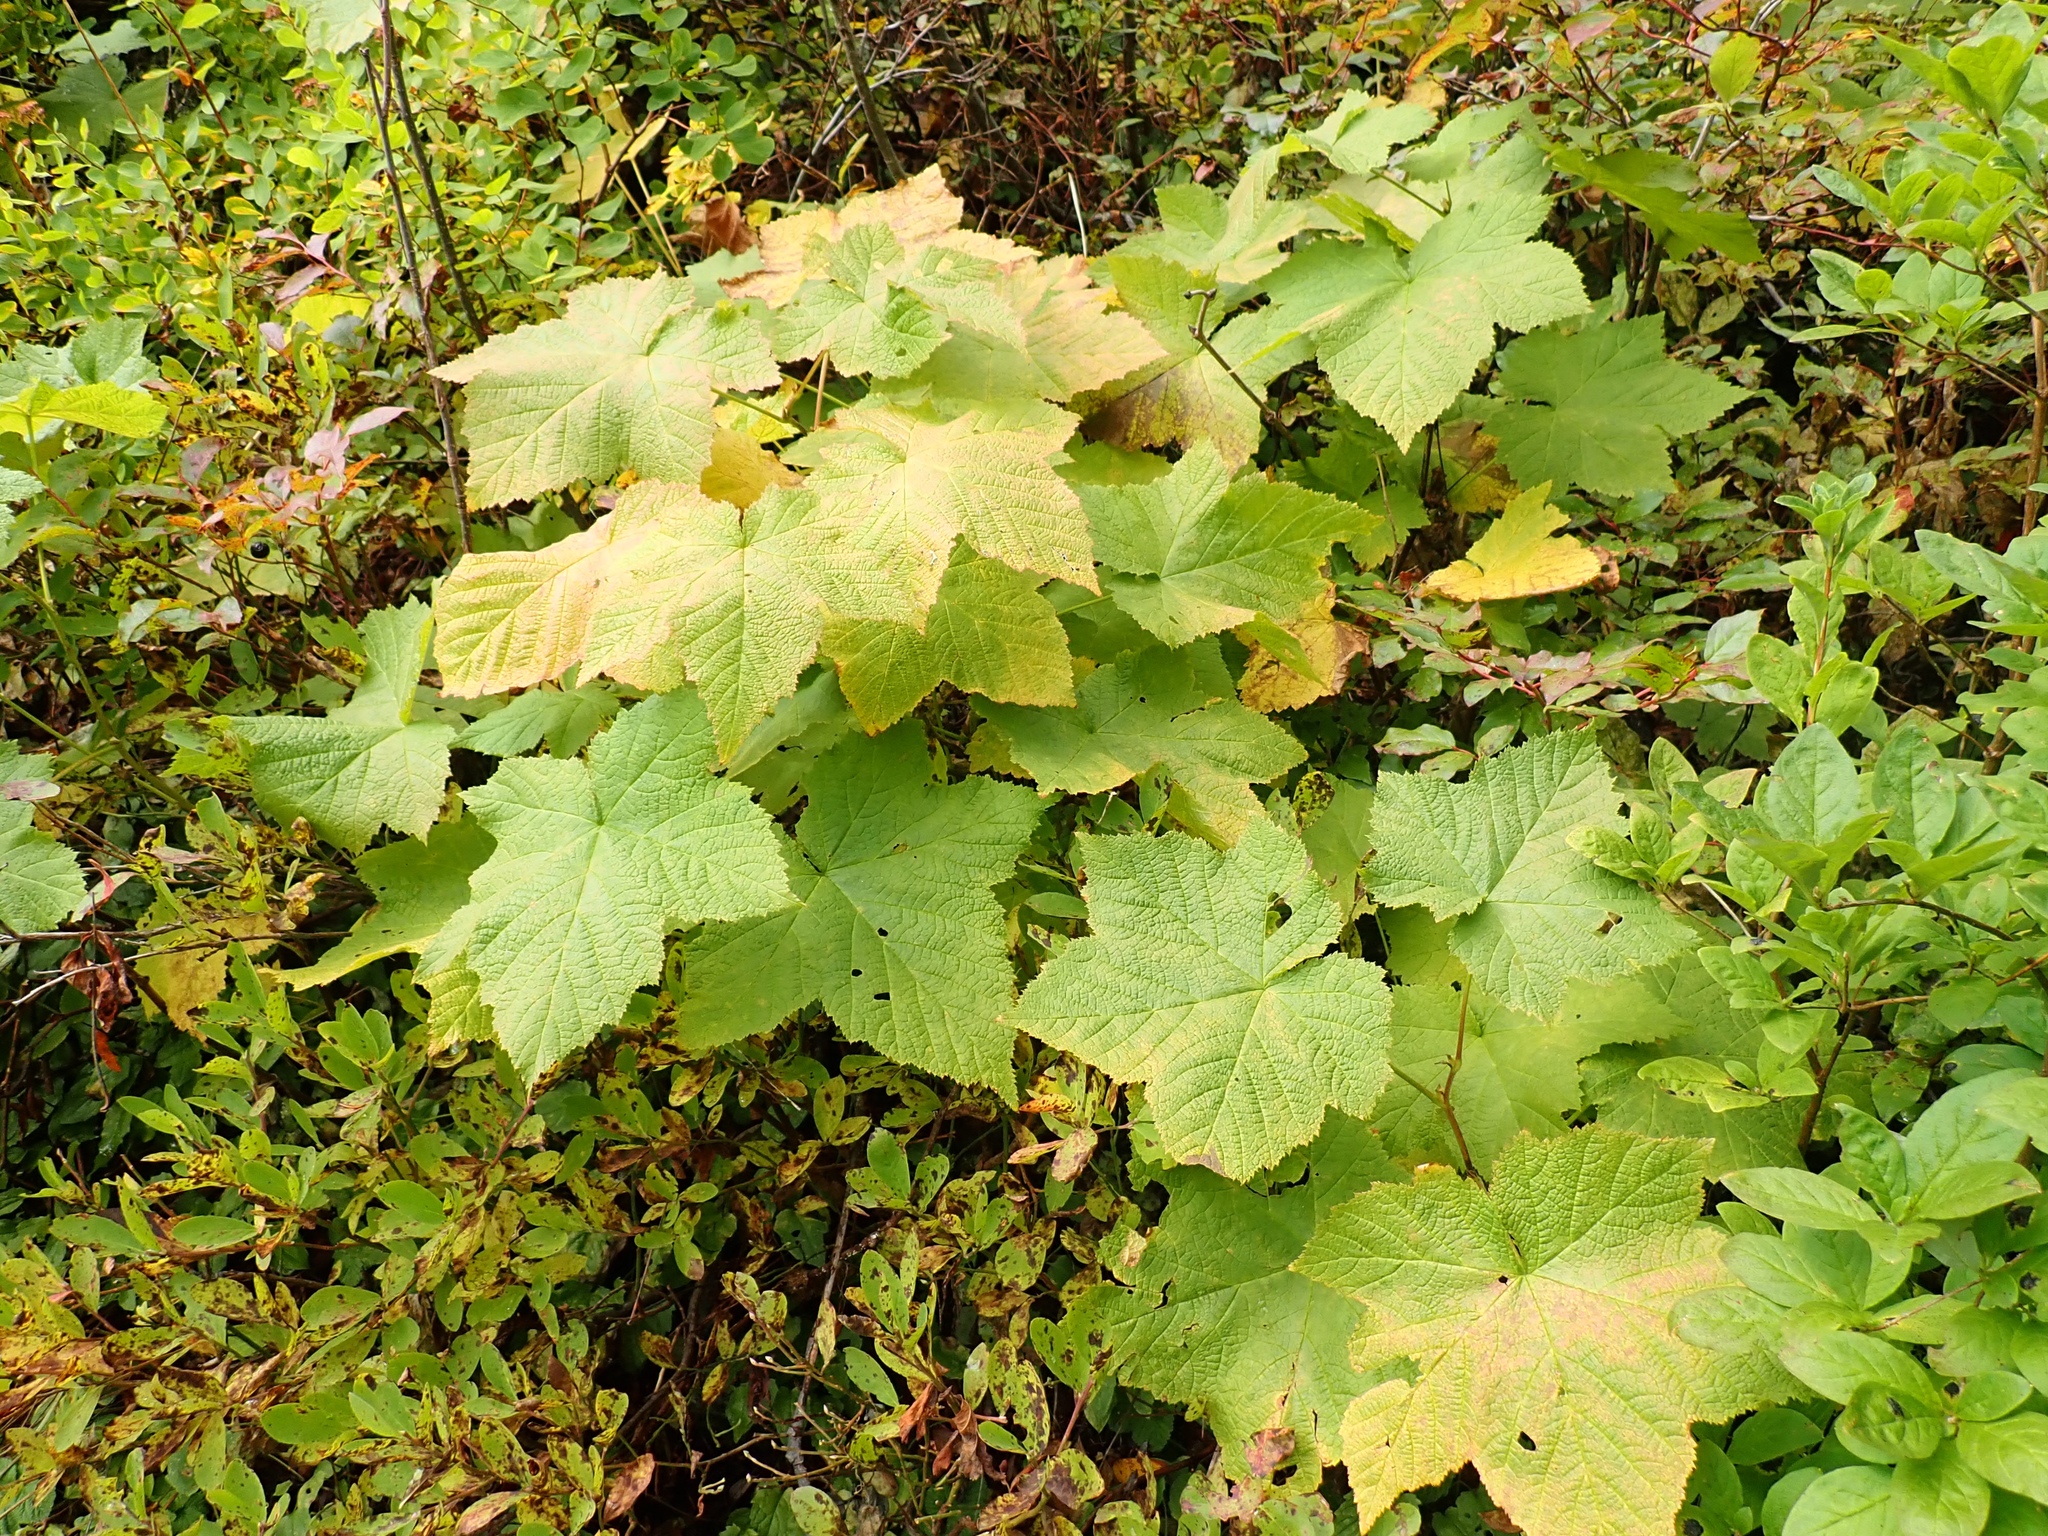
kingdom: Plantae
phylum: Tracheophyta
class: Magnoliopsida
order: Rosales
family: Rosaceae
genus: Rubus
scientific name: Rubus parviflorus
